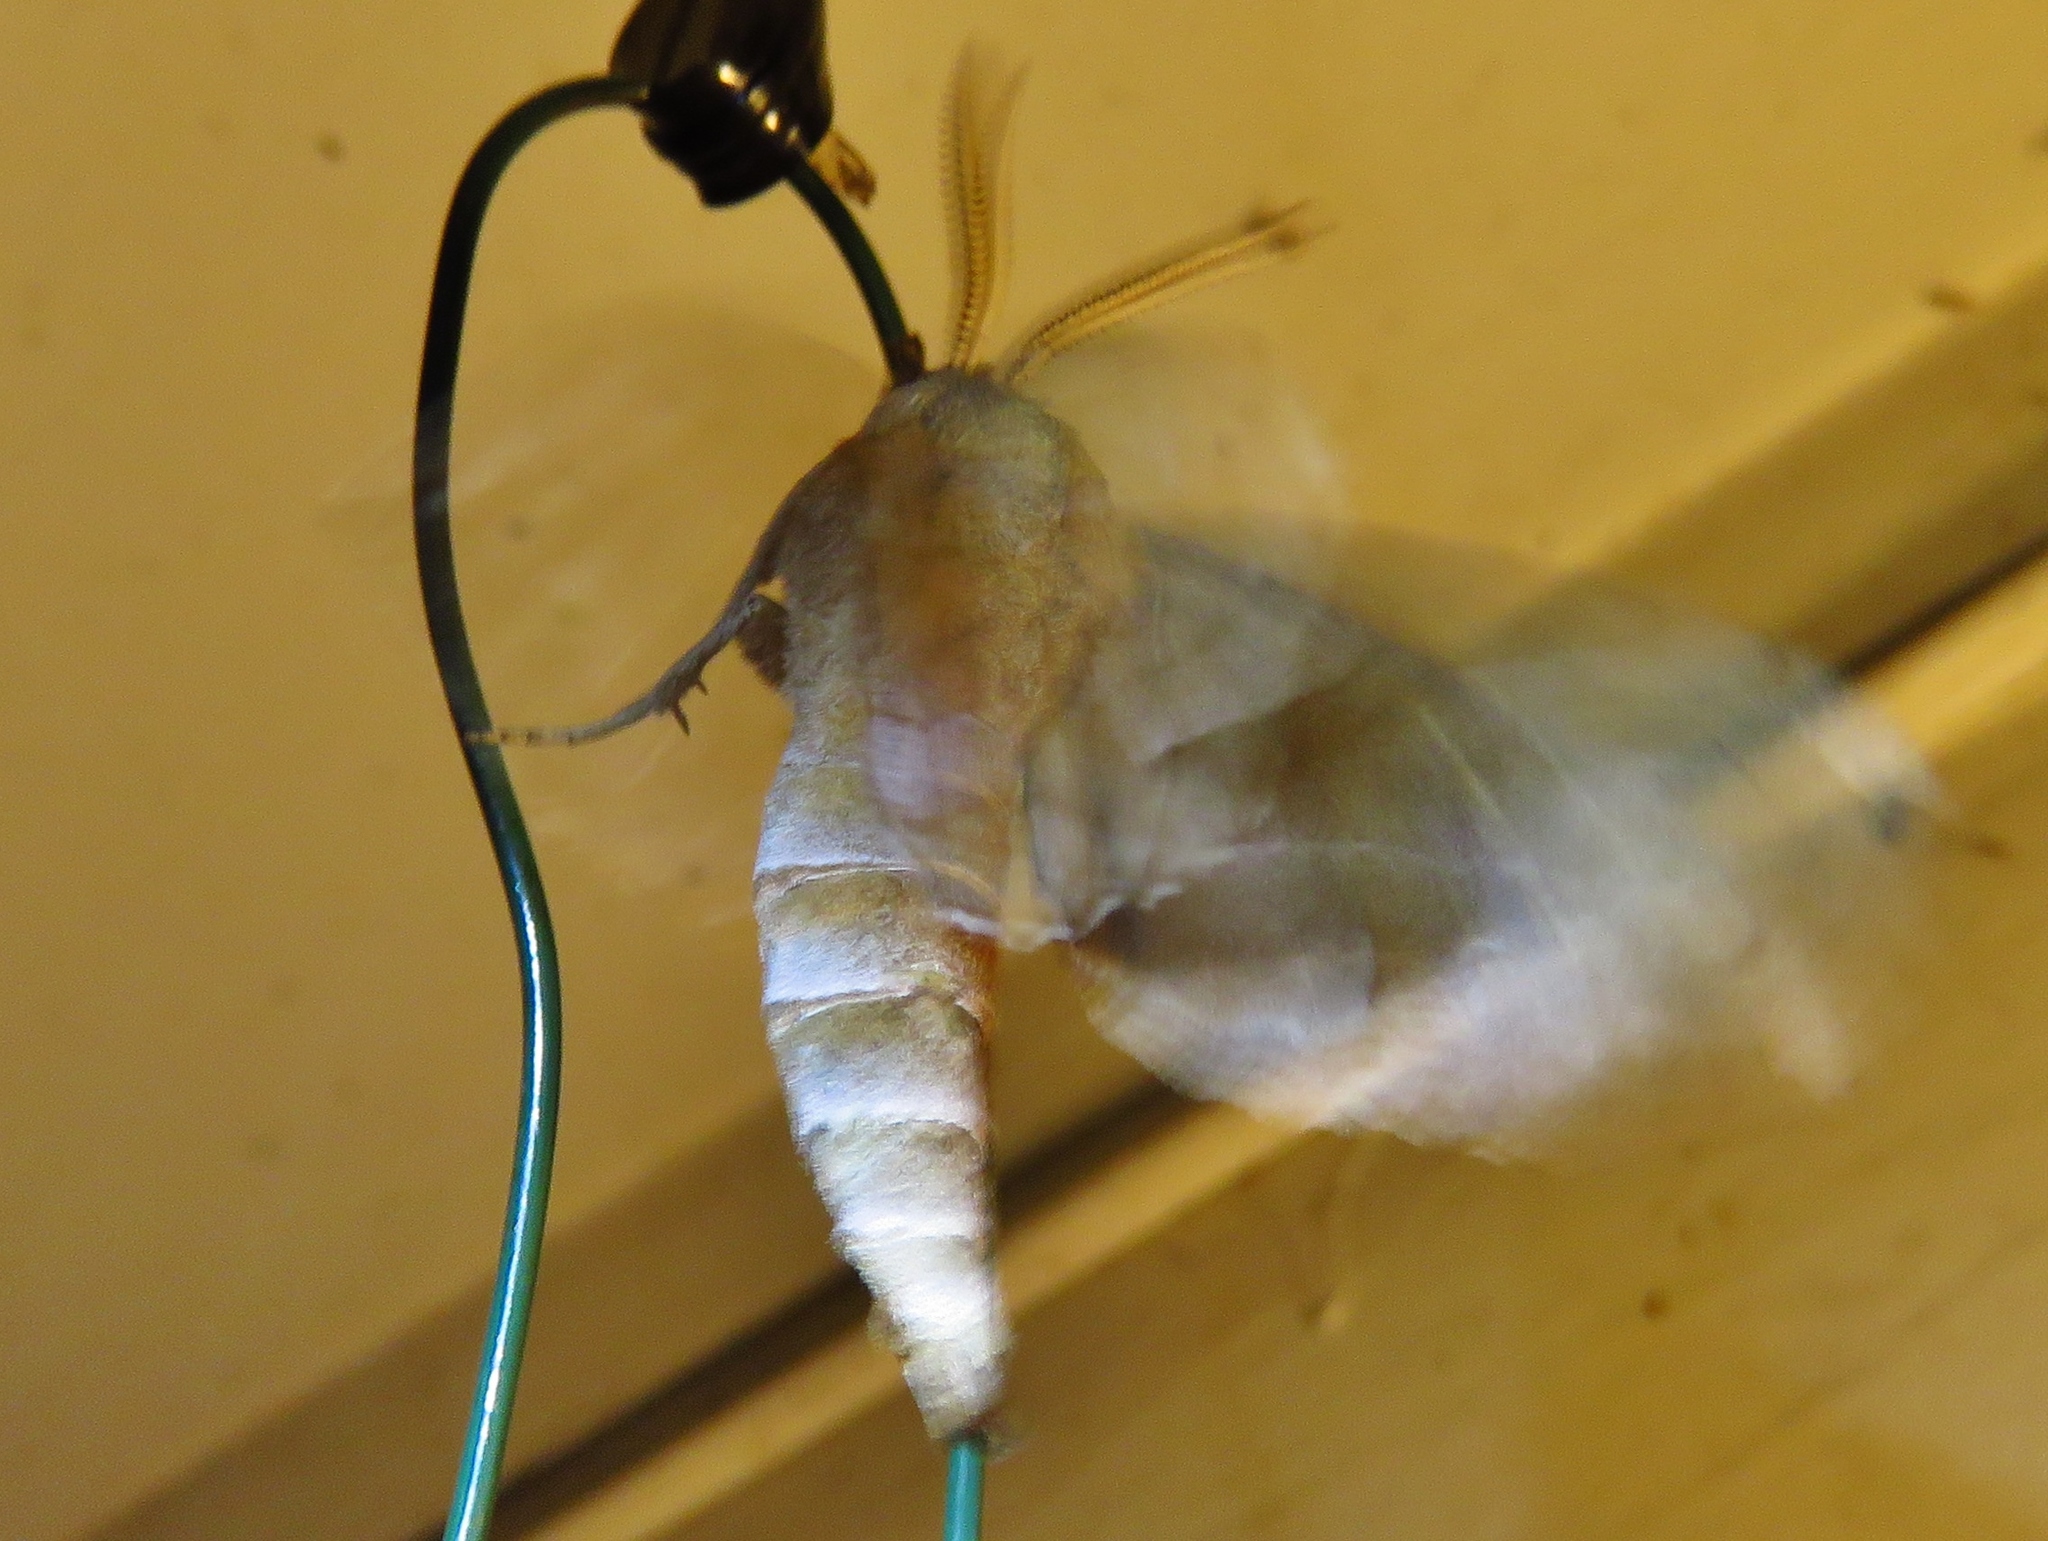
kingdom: Animalia
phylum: Arthropoda
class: Insecta
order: Lepidoptera
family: Sphingidae
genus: Amorpha
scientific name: Amorpha juglandis
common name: Walnut sphinx
